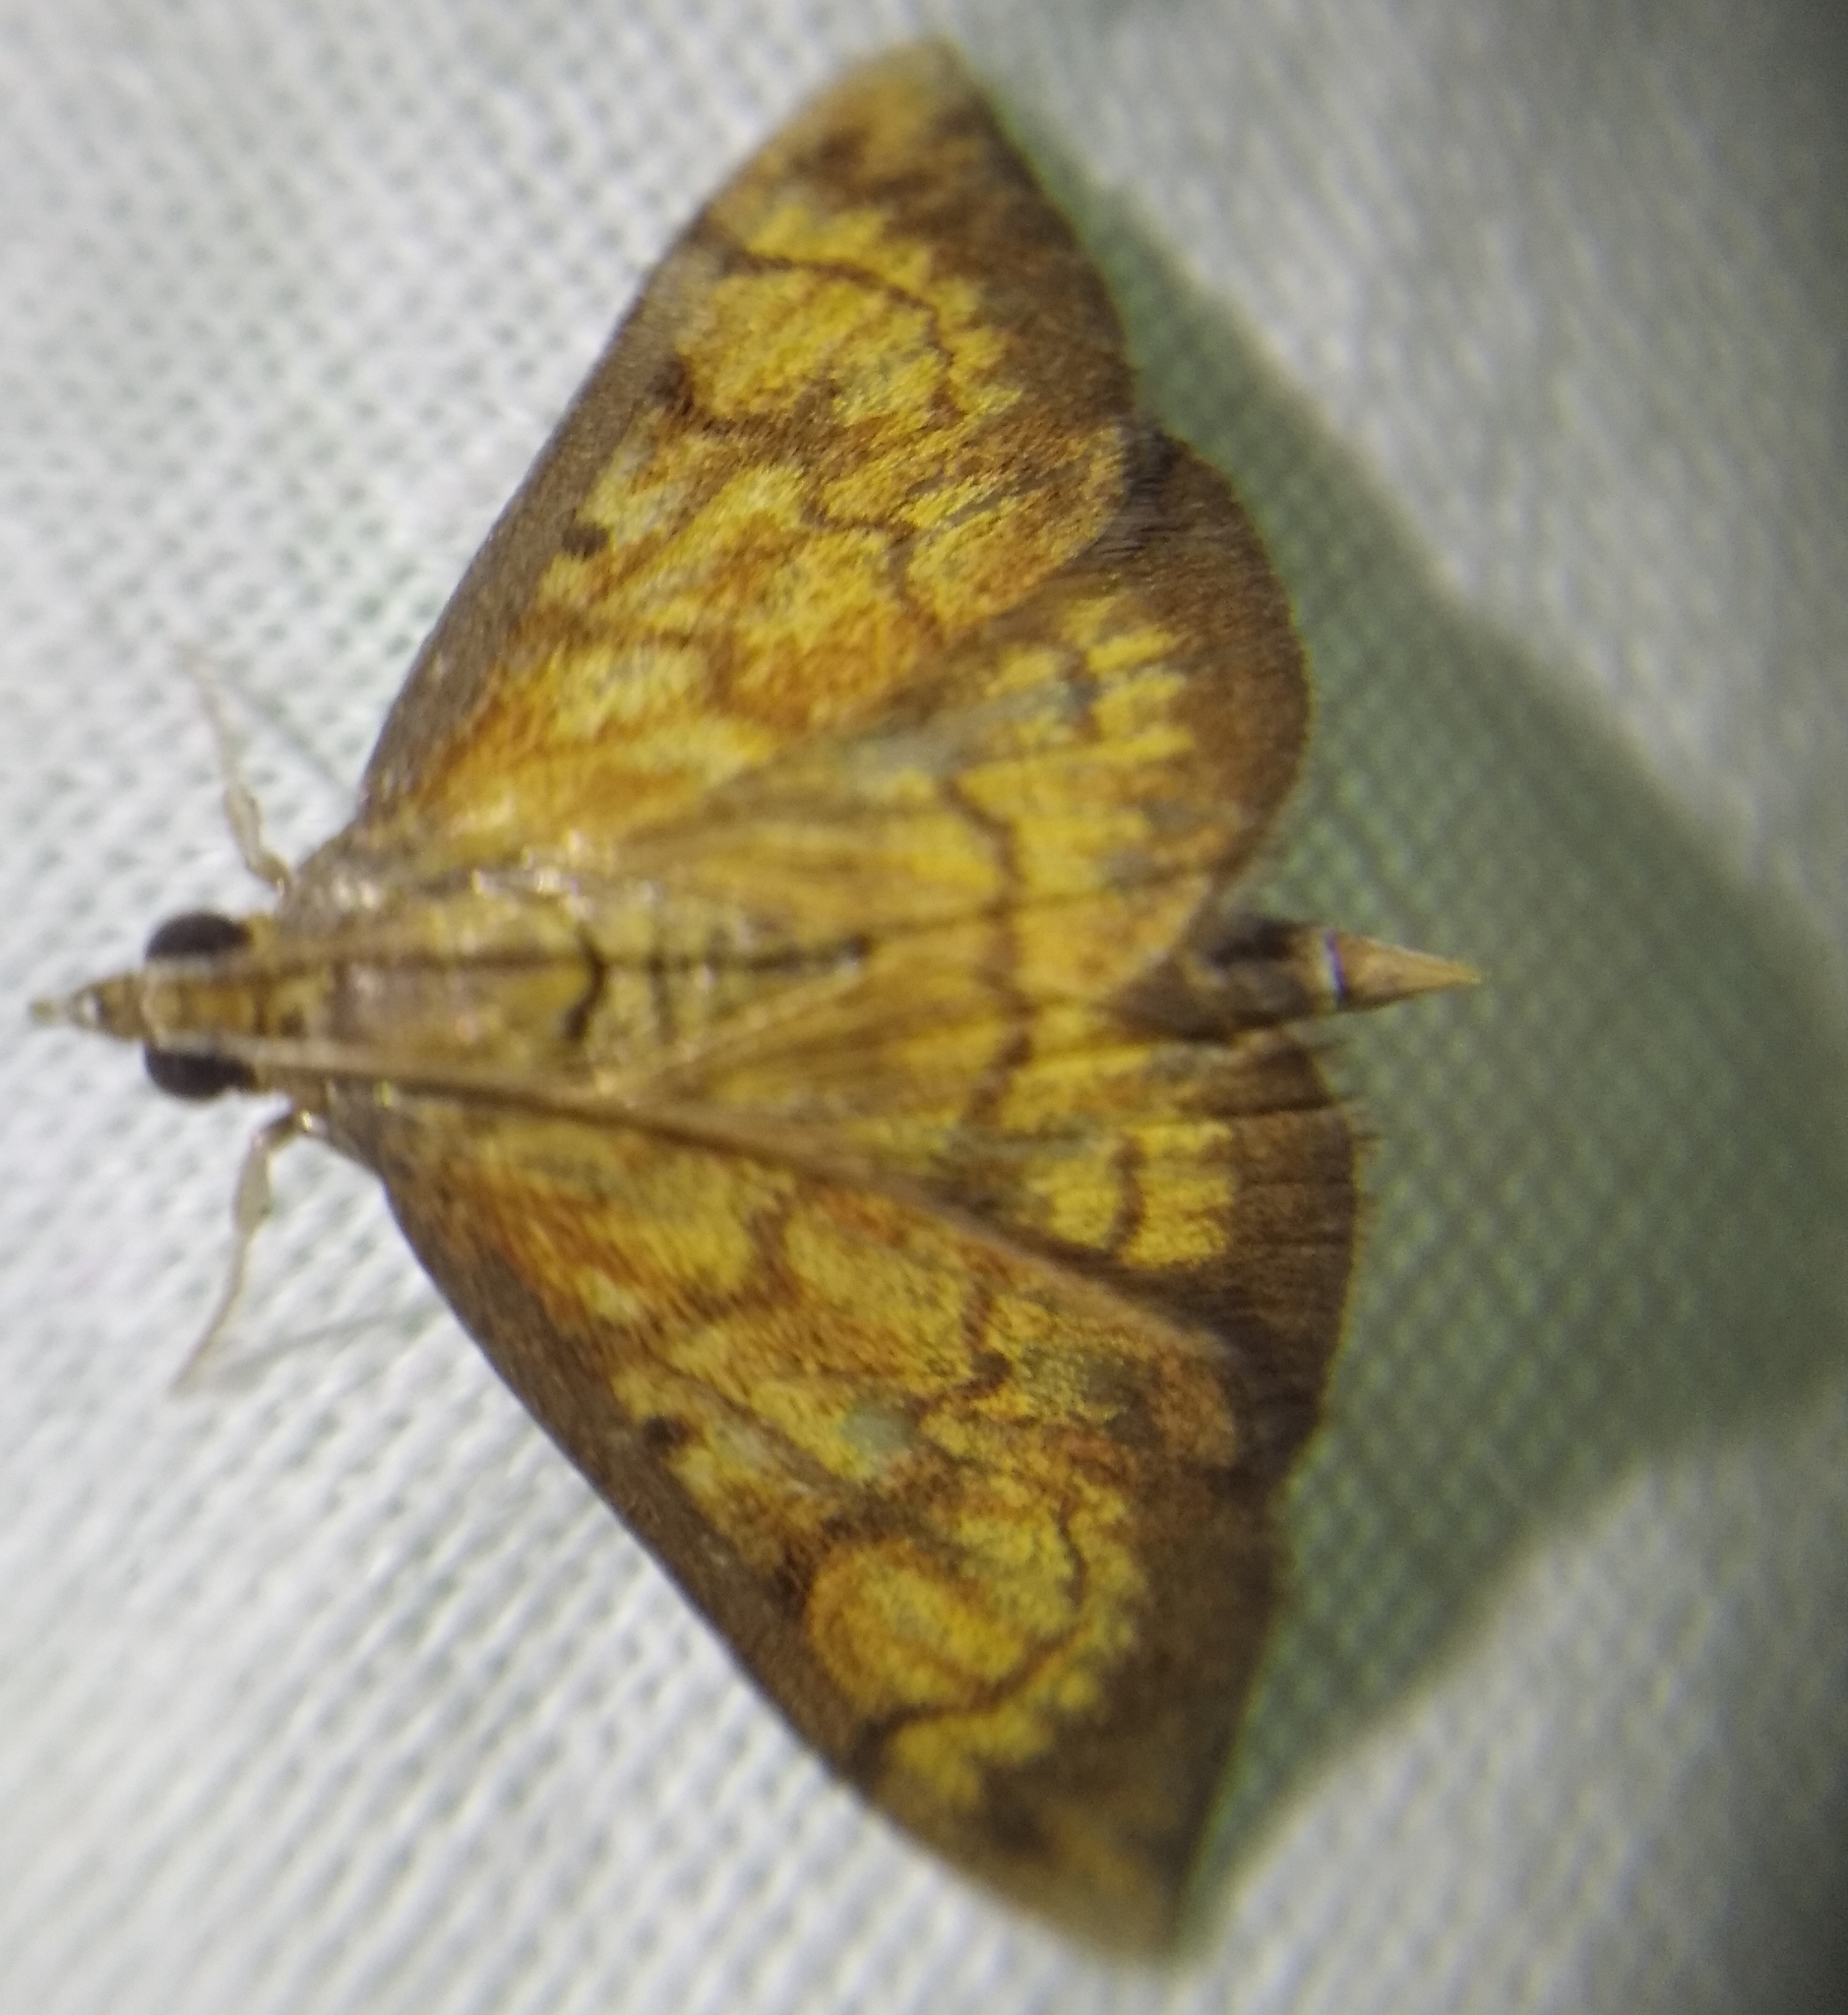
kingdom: Animalia
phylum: Arthropoda
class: Insecta
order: Lepidoptera
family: Crambidae
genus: Ecpyrrhorrhoe
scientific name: Ecpyrrhorrhoe rubiginalis
